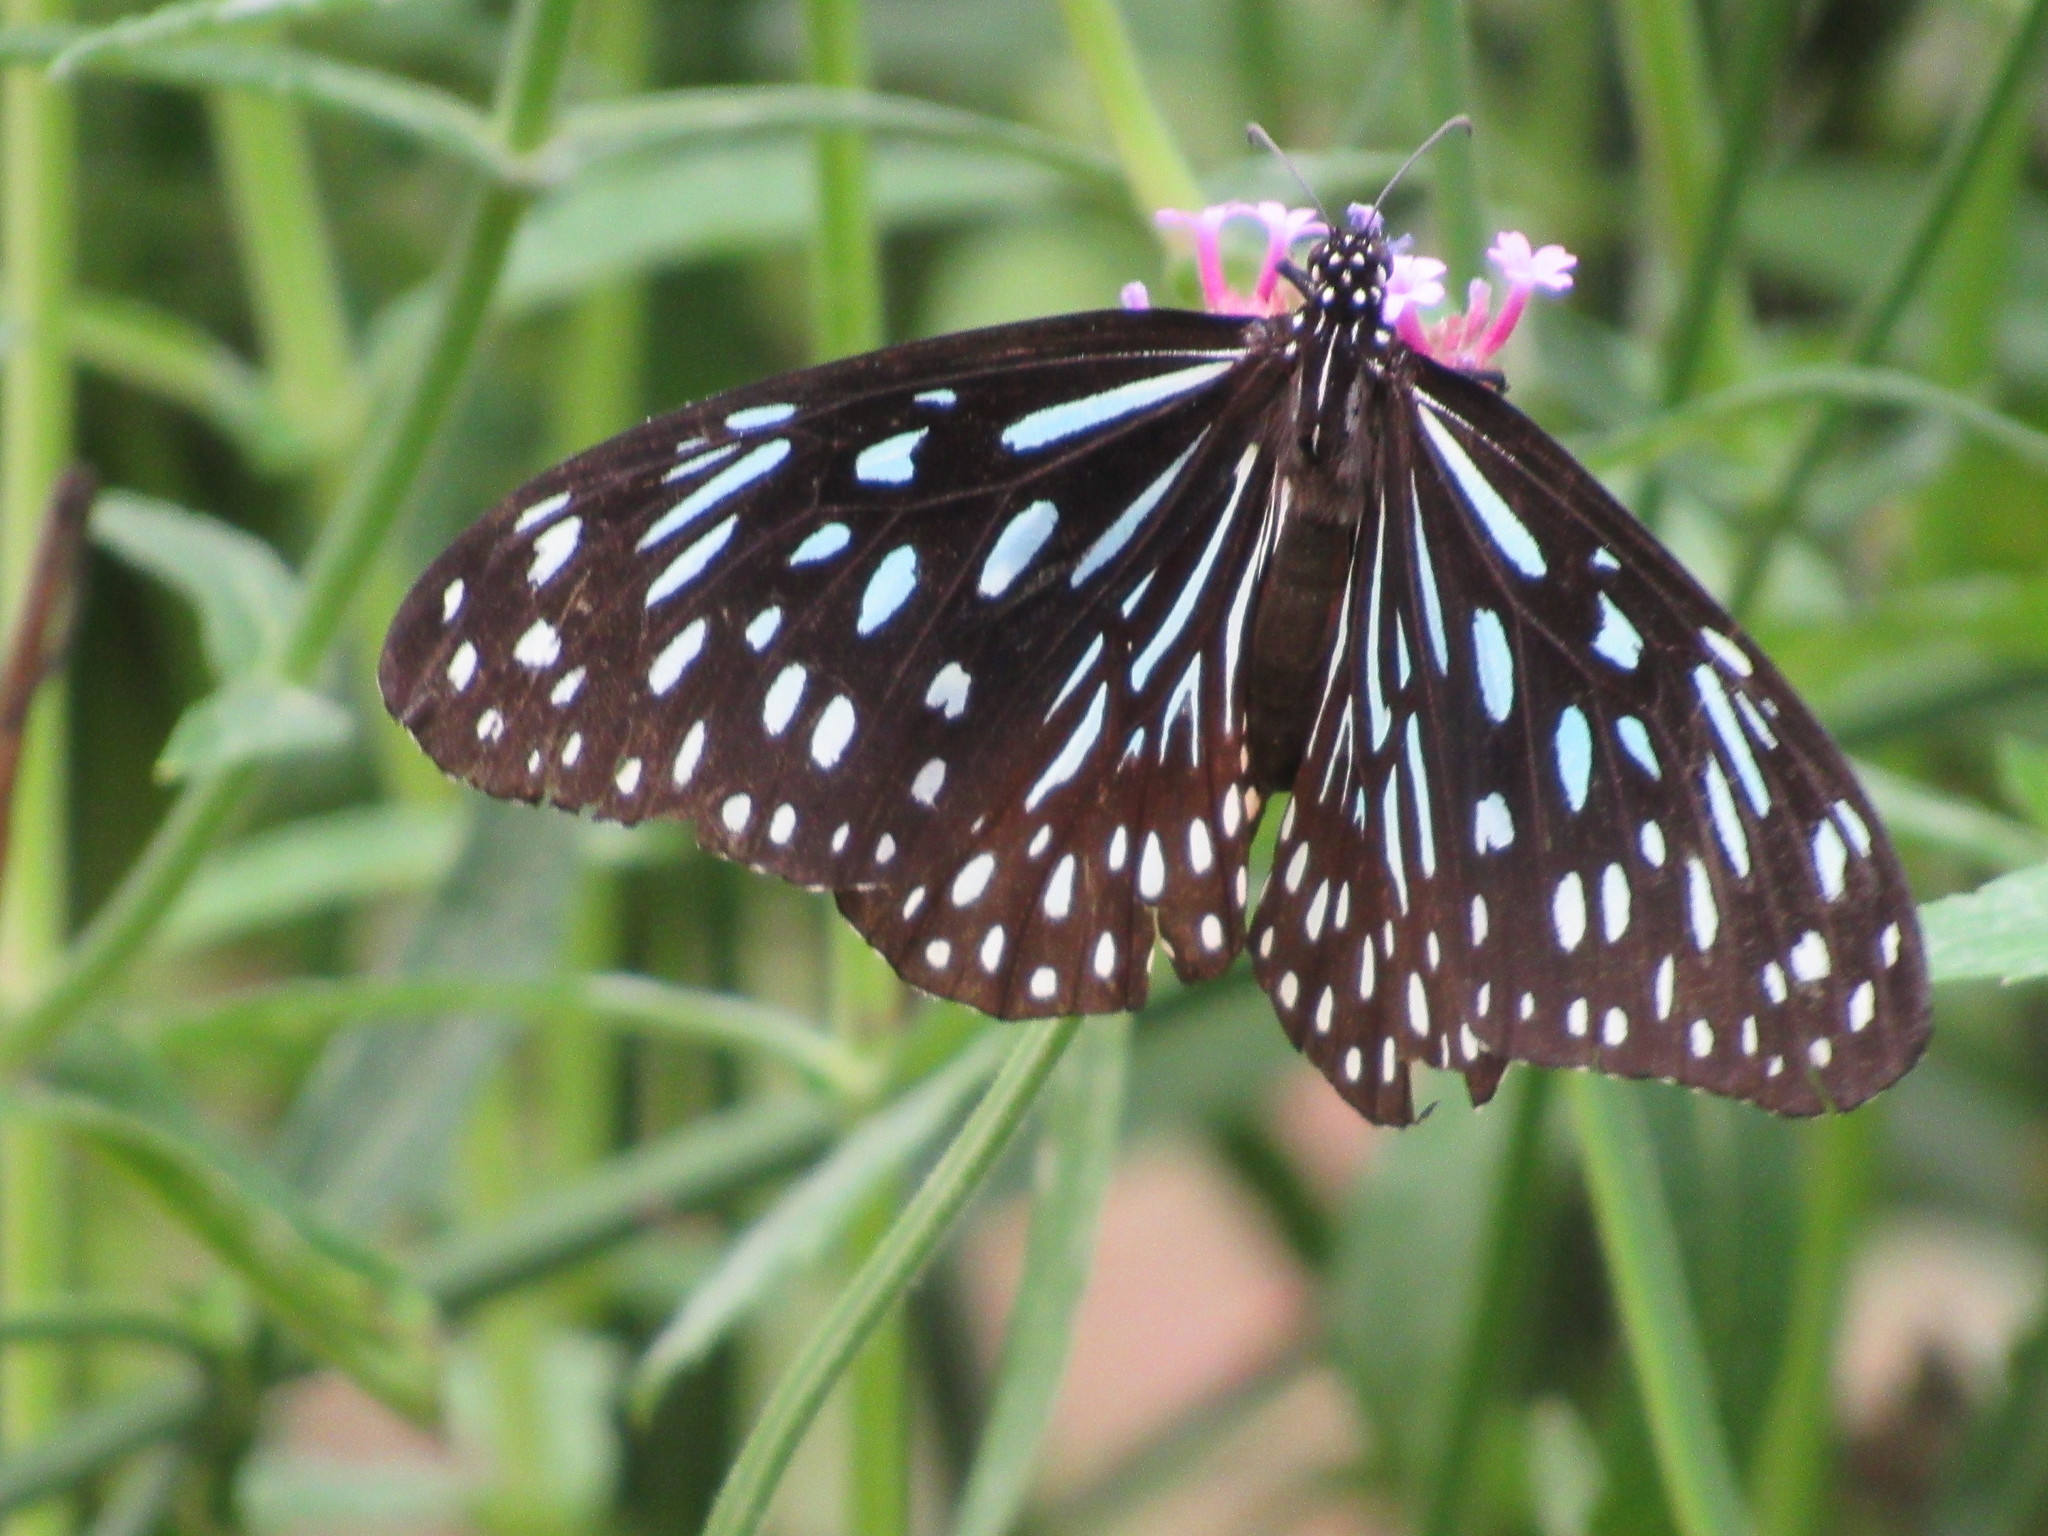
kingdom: Animalia
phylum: Arthropoda
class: Insecta
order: Lepidoptera
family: Nymphalidae
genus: Tirumala
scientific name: Tirumala septentrionis
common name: Dark blue tiger butterfly
